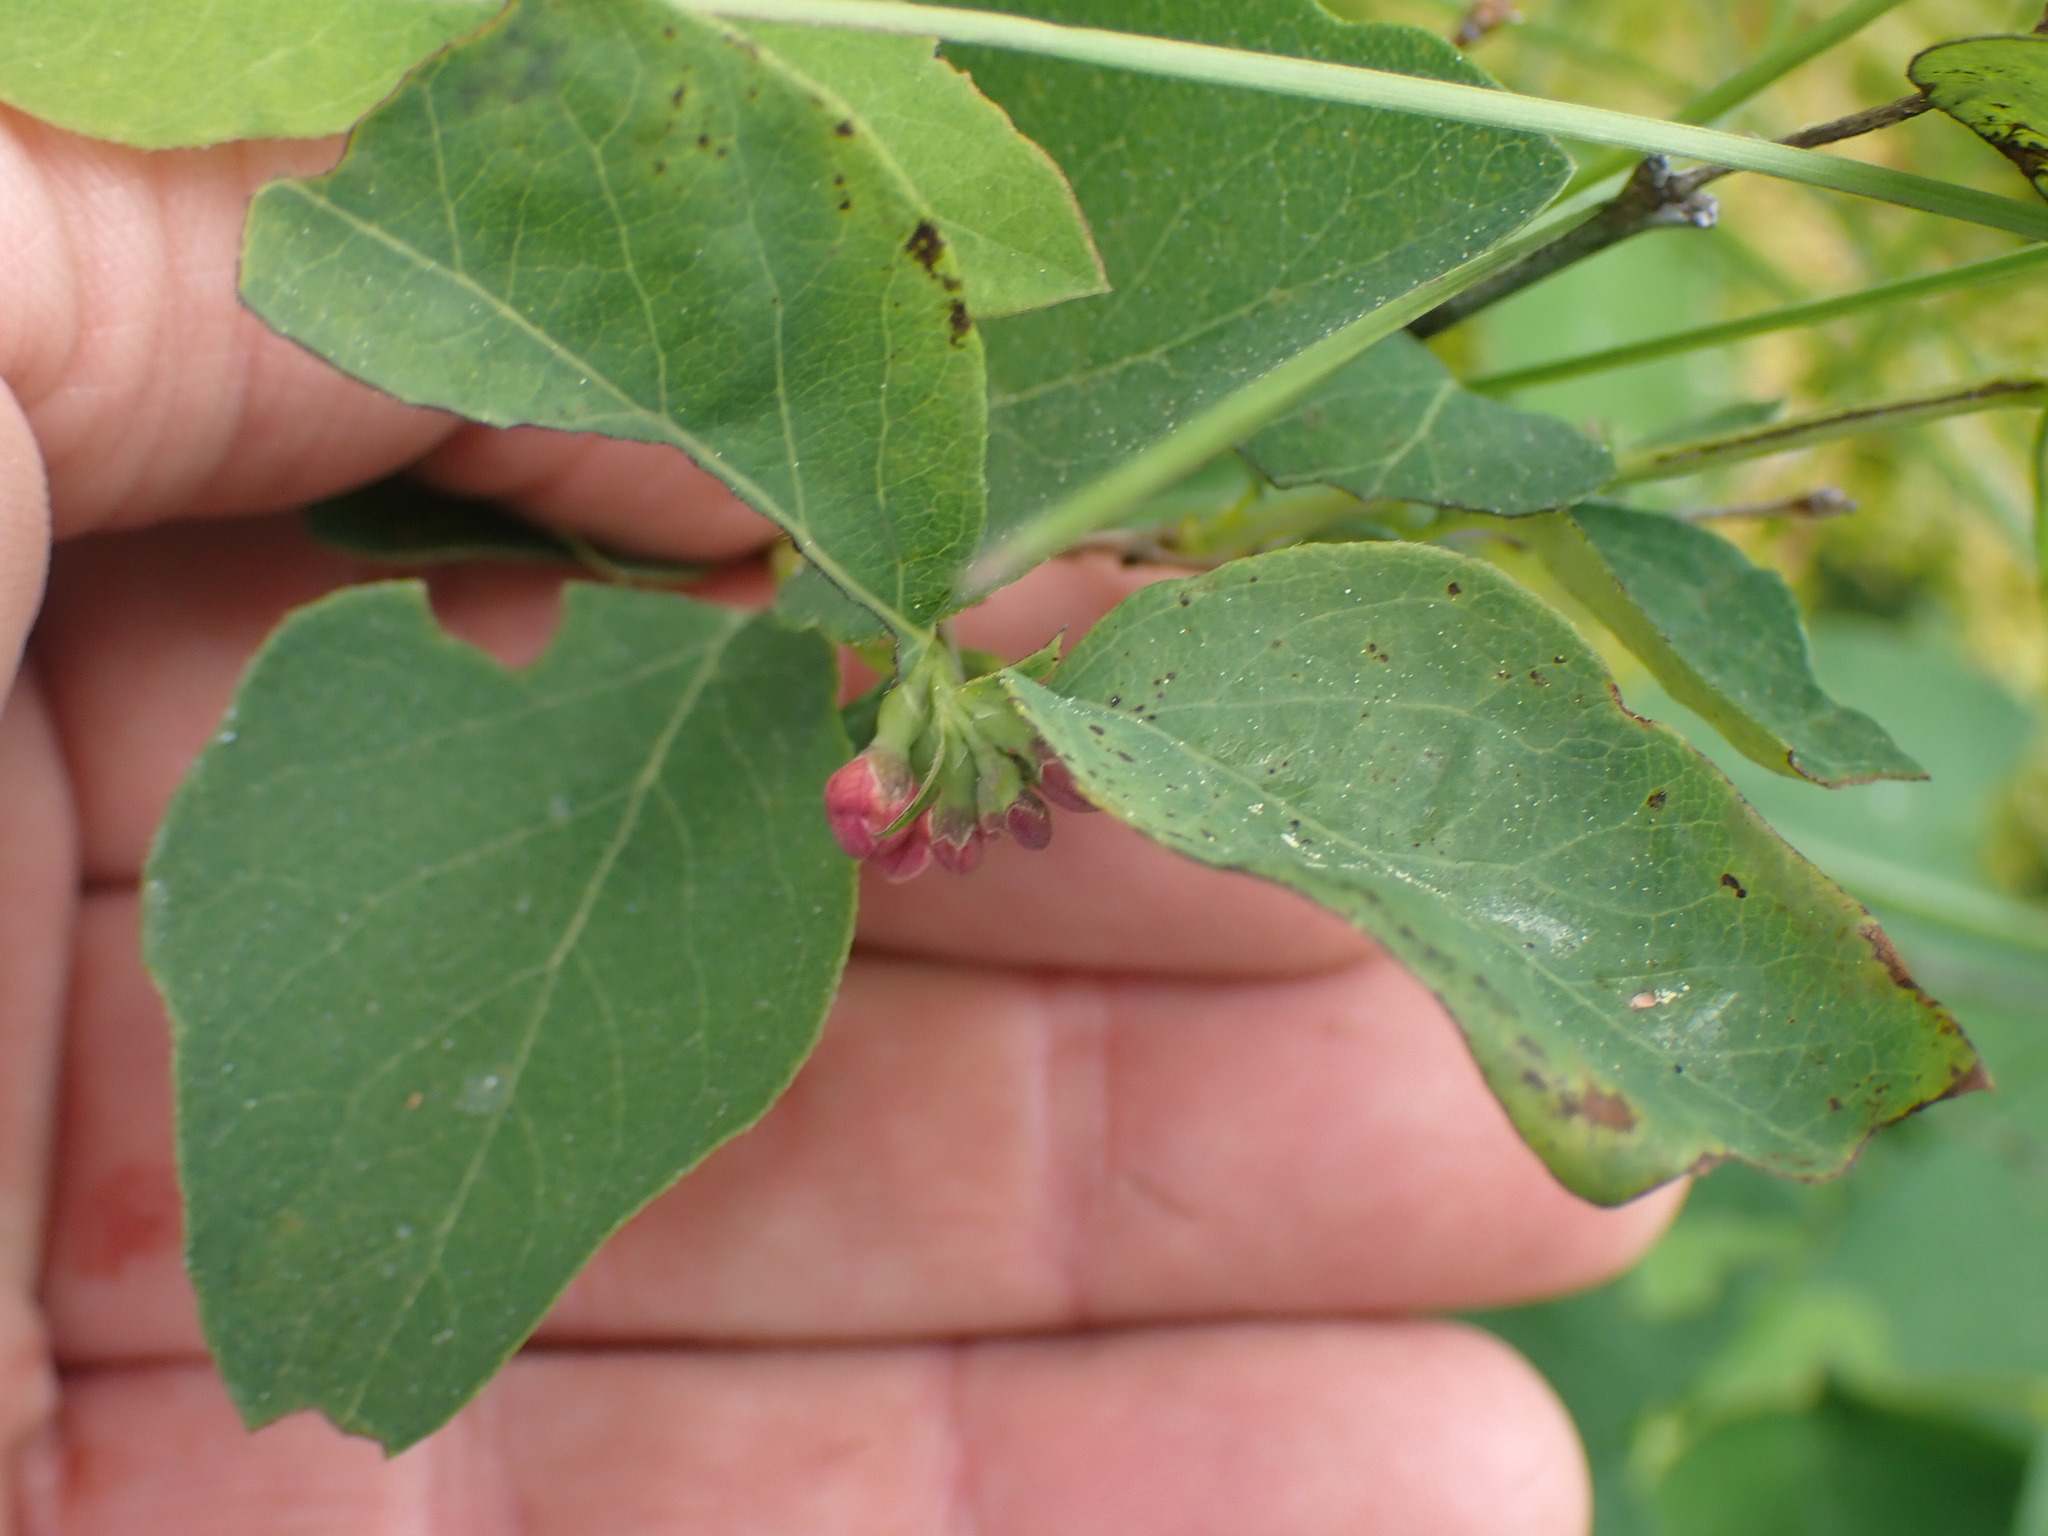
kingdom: Plantae
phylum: Tracheophyta
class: Magnoliopsida
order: Dipsacales
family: Caprifoliaceae
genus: Symphoricarpos
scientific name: Symphoricarpos albus
